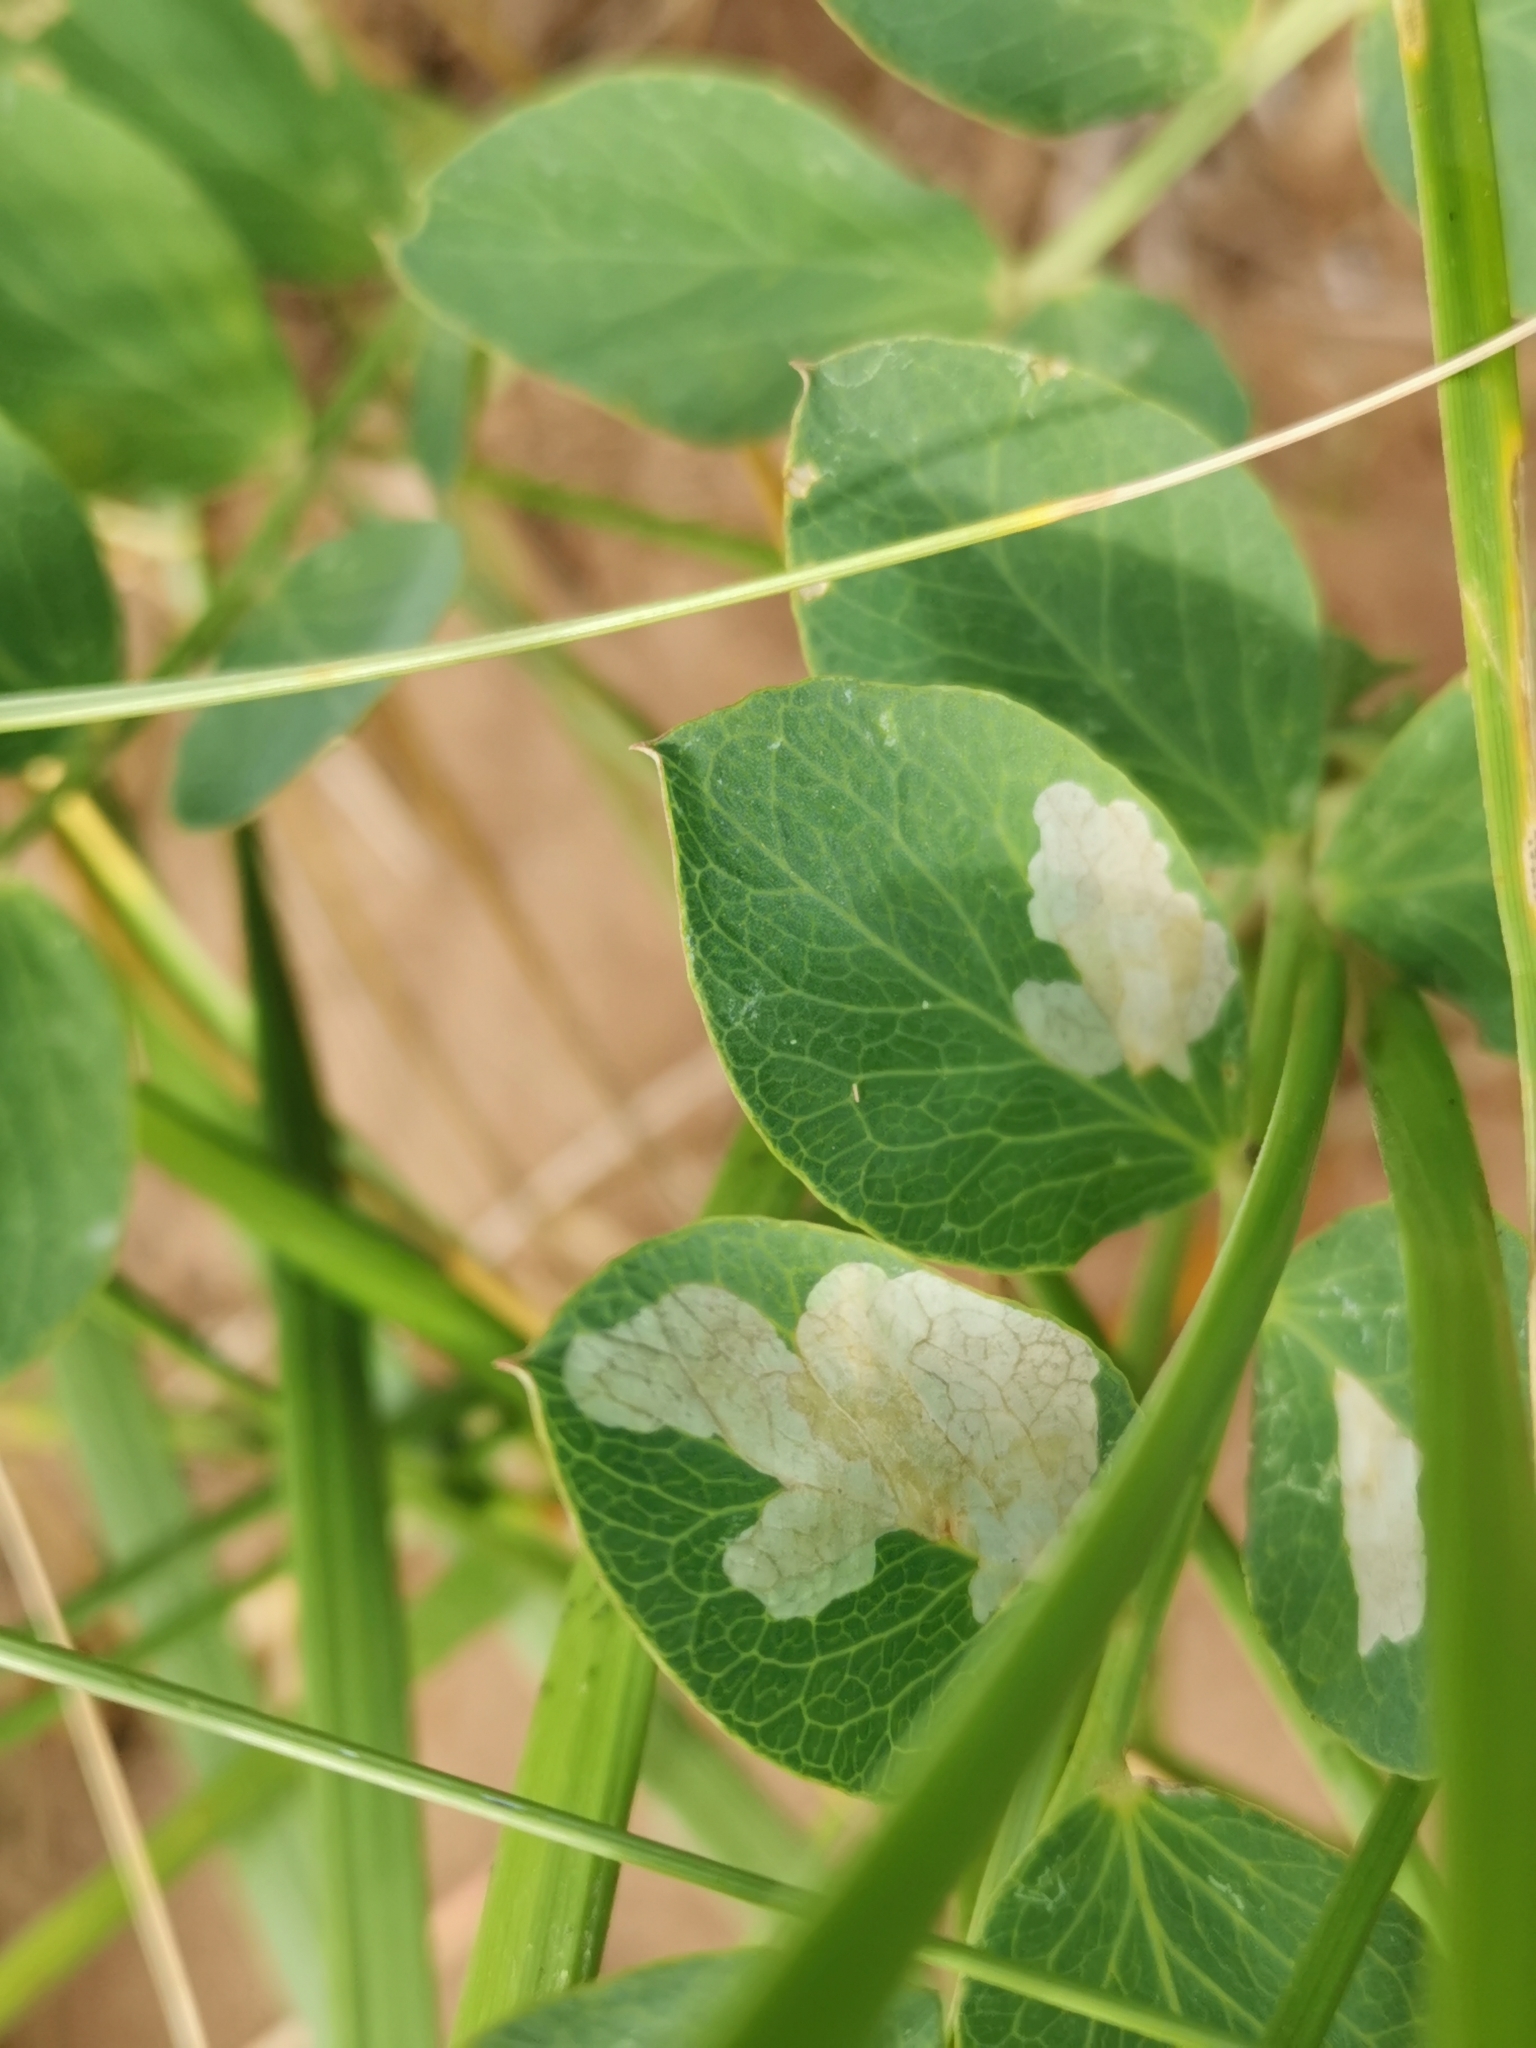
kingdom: Animalia
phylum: Arthropoda
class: Insecta
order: Lepidoptera
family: Gracillariidae
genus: Micrurapteryx
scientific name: Micrurapteryx occulta
